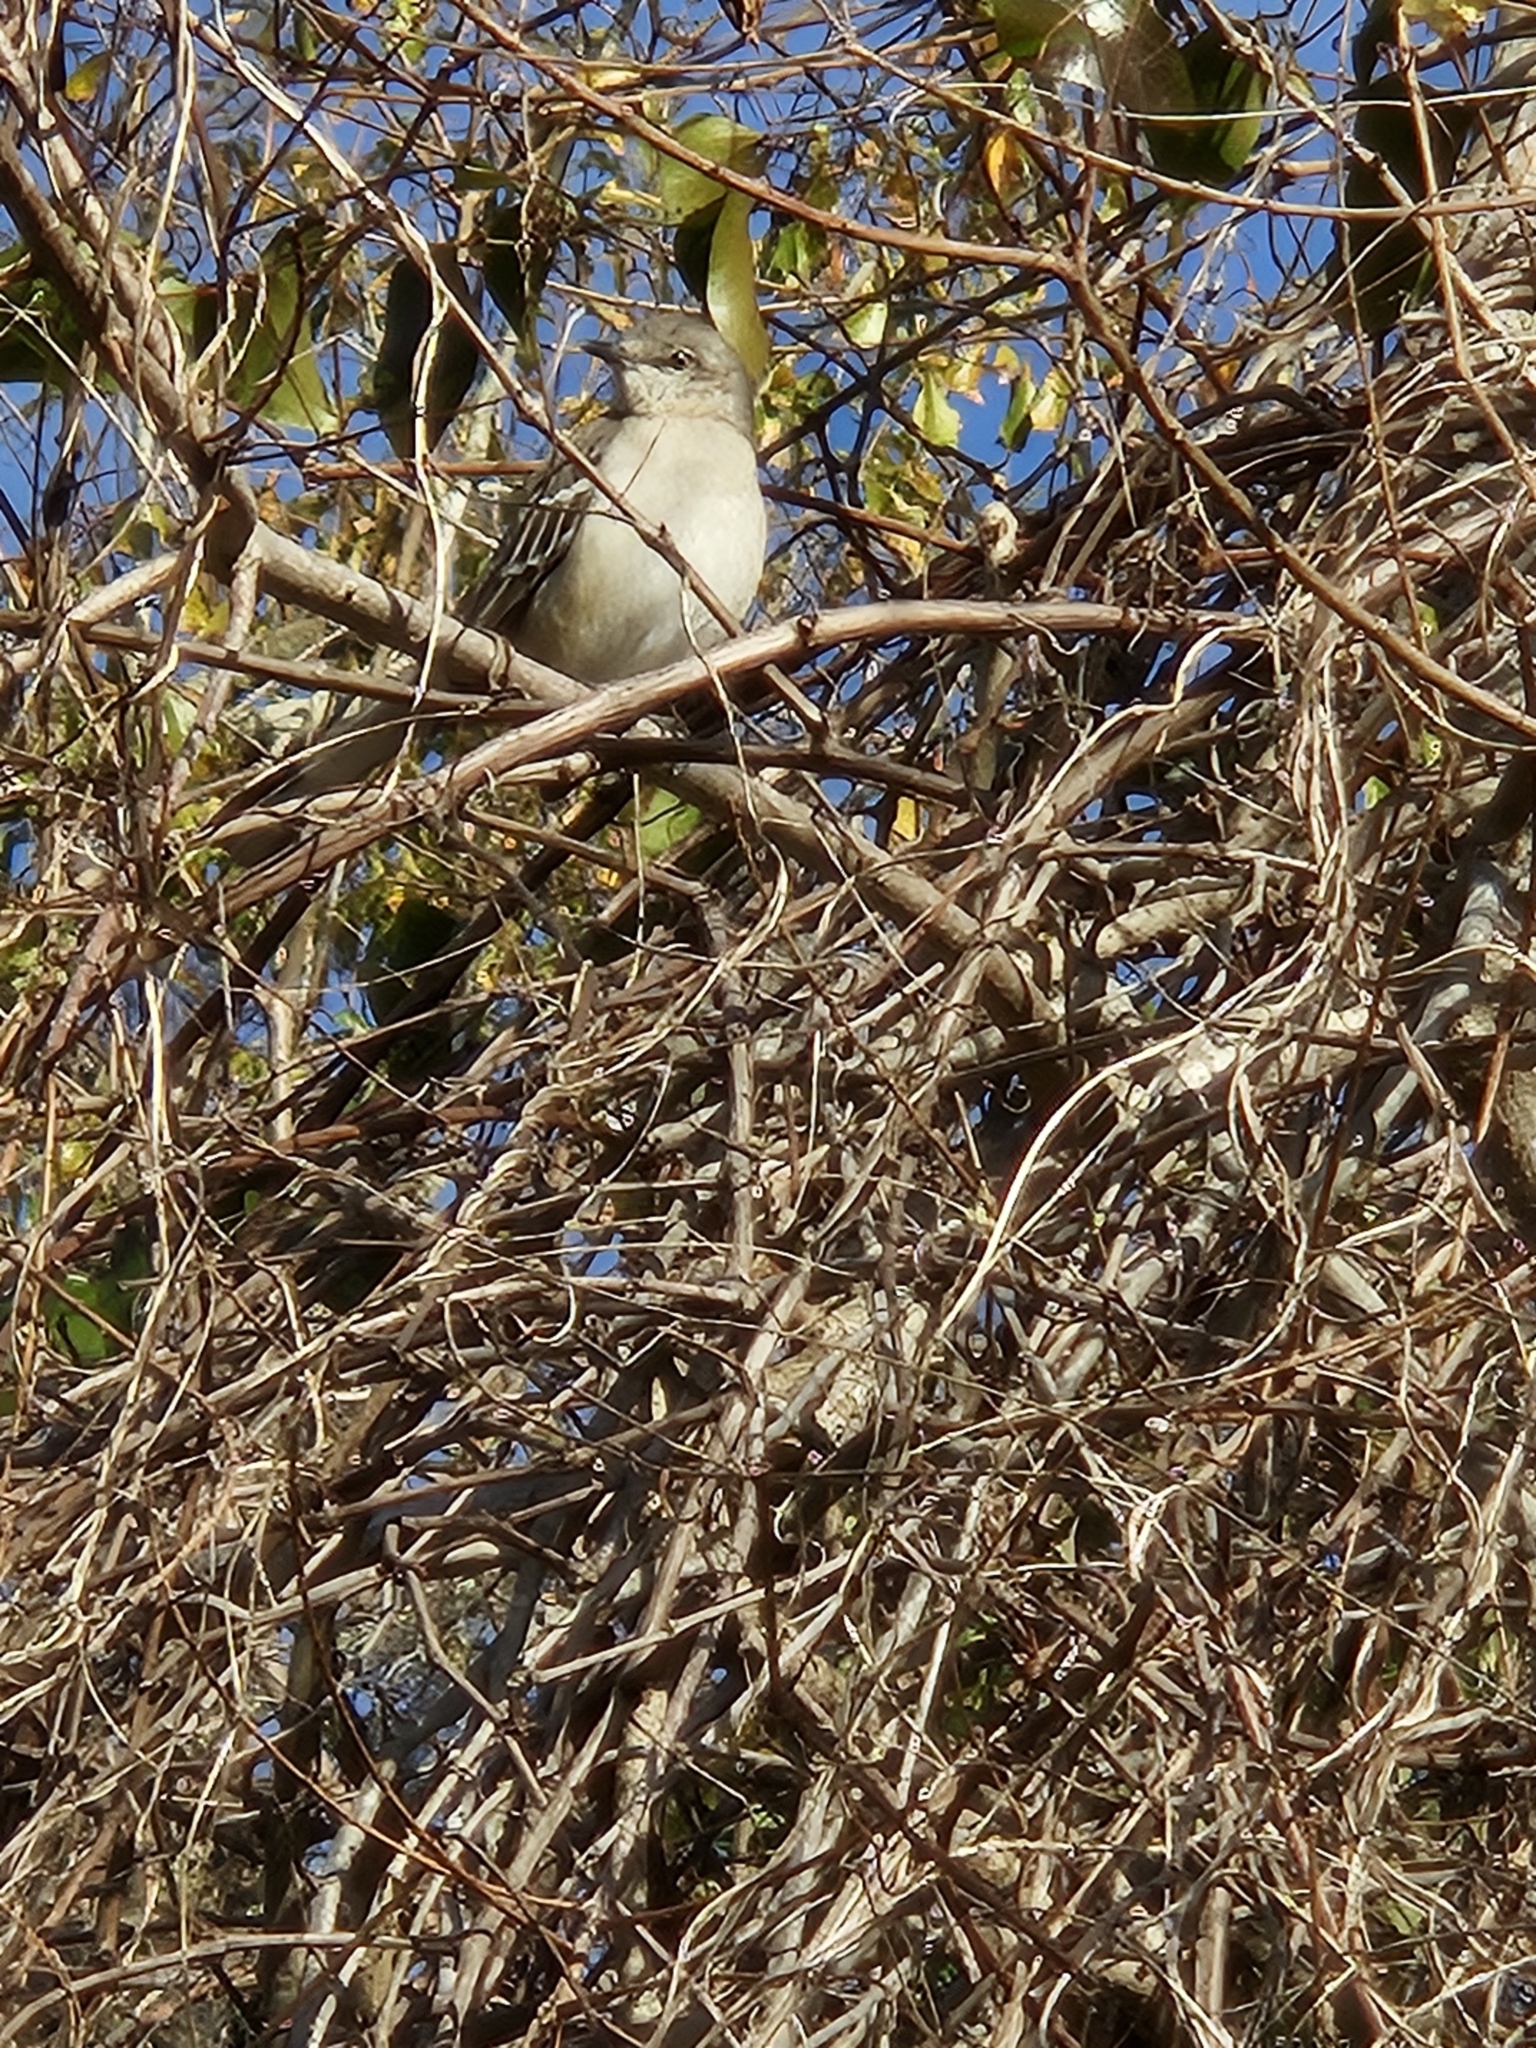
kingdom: Animalia
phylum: Chordata
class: Aves
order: Passeriformes
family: Mimidae
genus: Mimus
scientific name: Mimus polyglottos
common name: Northern mockingbird
